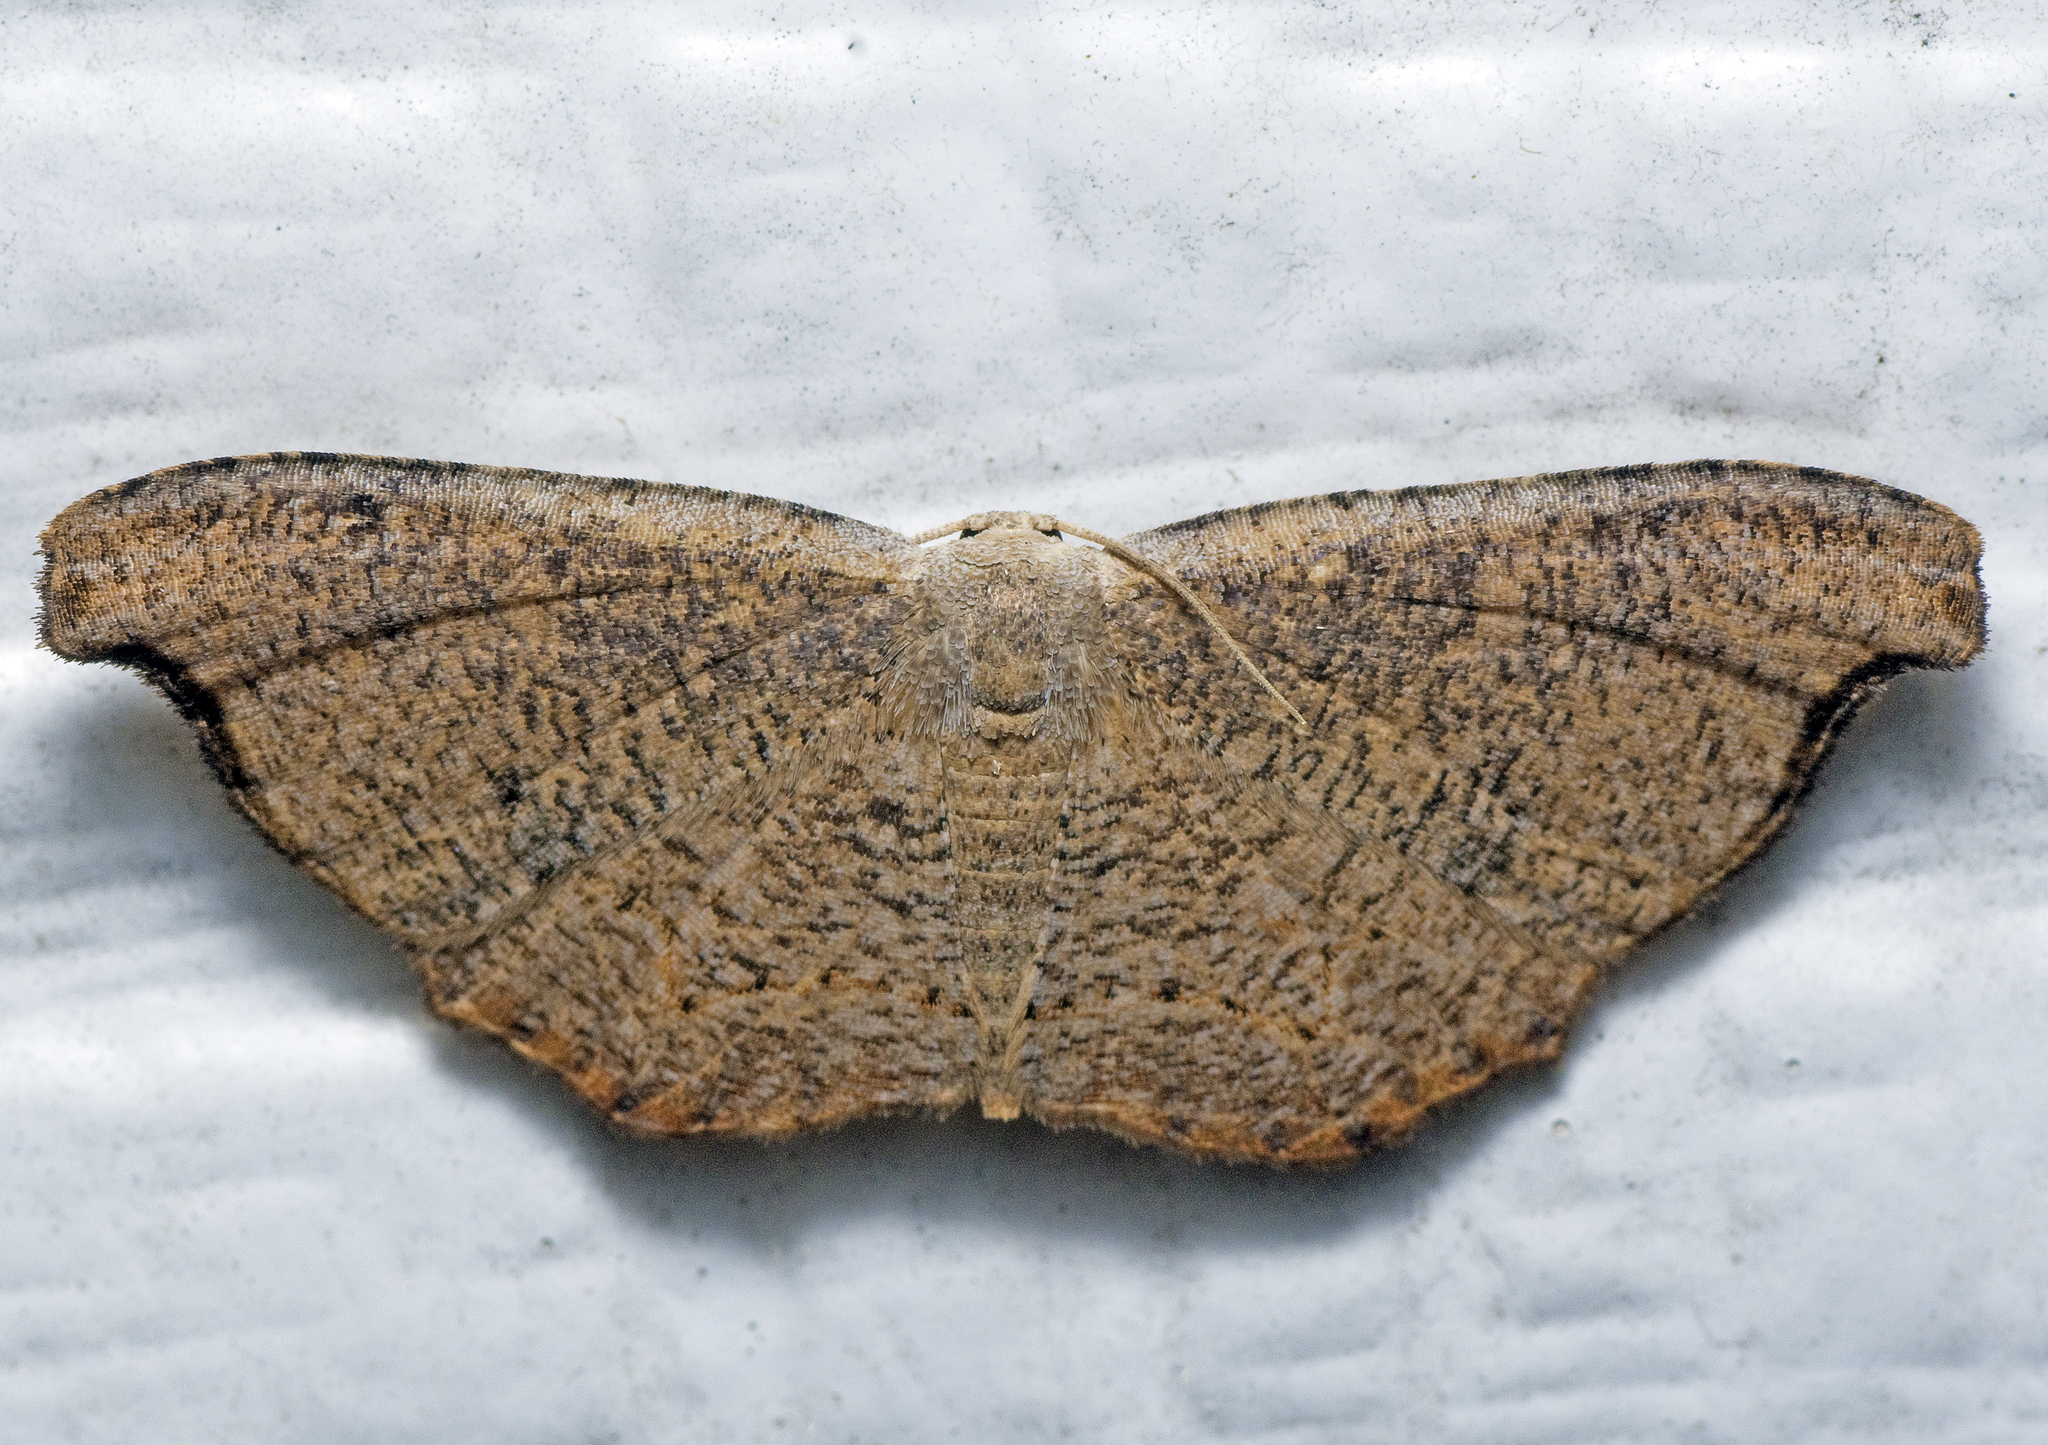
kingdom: Animalia
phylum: Arthropoda
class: Insecta
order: Lepidoptera
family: Uraniidae
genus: Epiplema
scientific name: Epiplema argillodes
